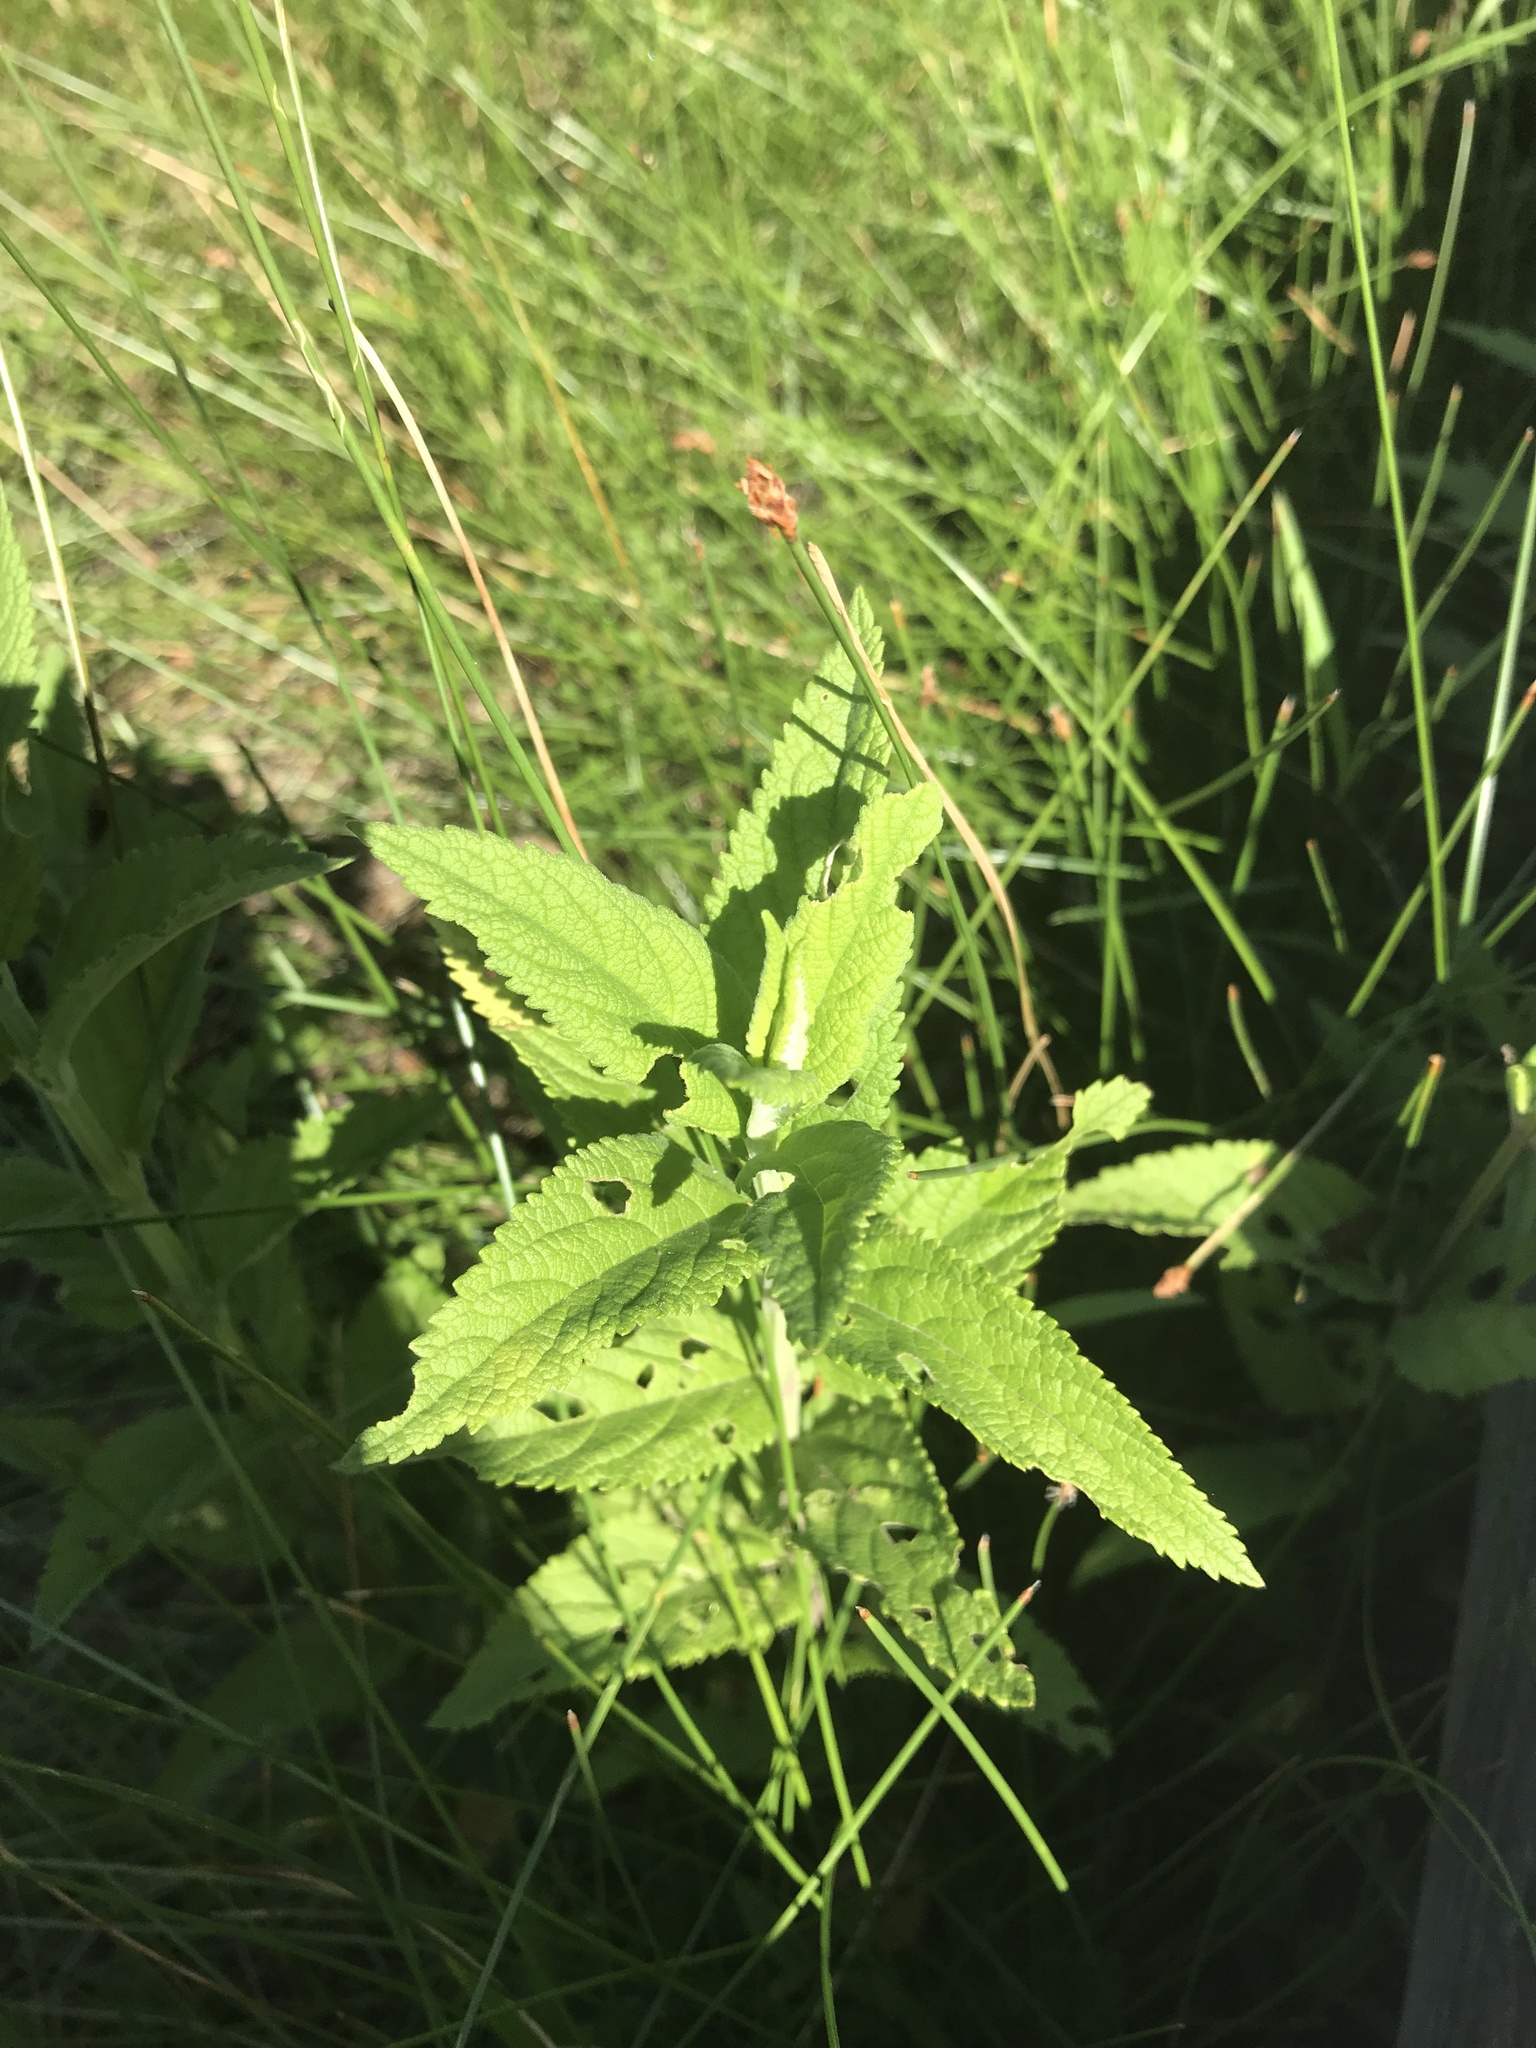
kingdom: Plantae
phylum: Tracheophyta
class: Magnoliopsida
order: Lamiales
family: Lamiaceae
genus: Teucrium
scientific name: Teucrium canadense
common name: American germander
